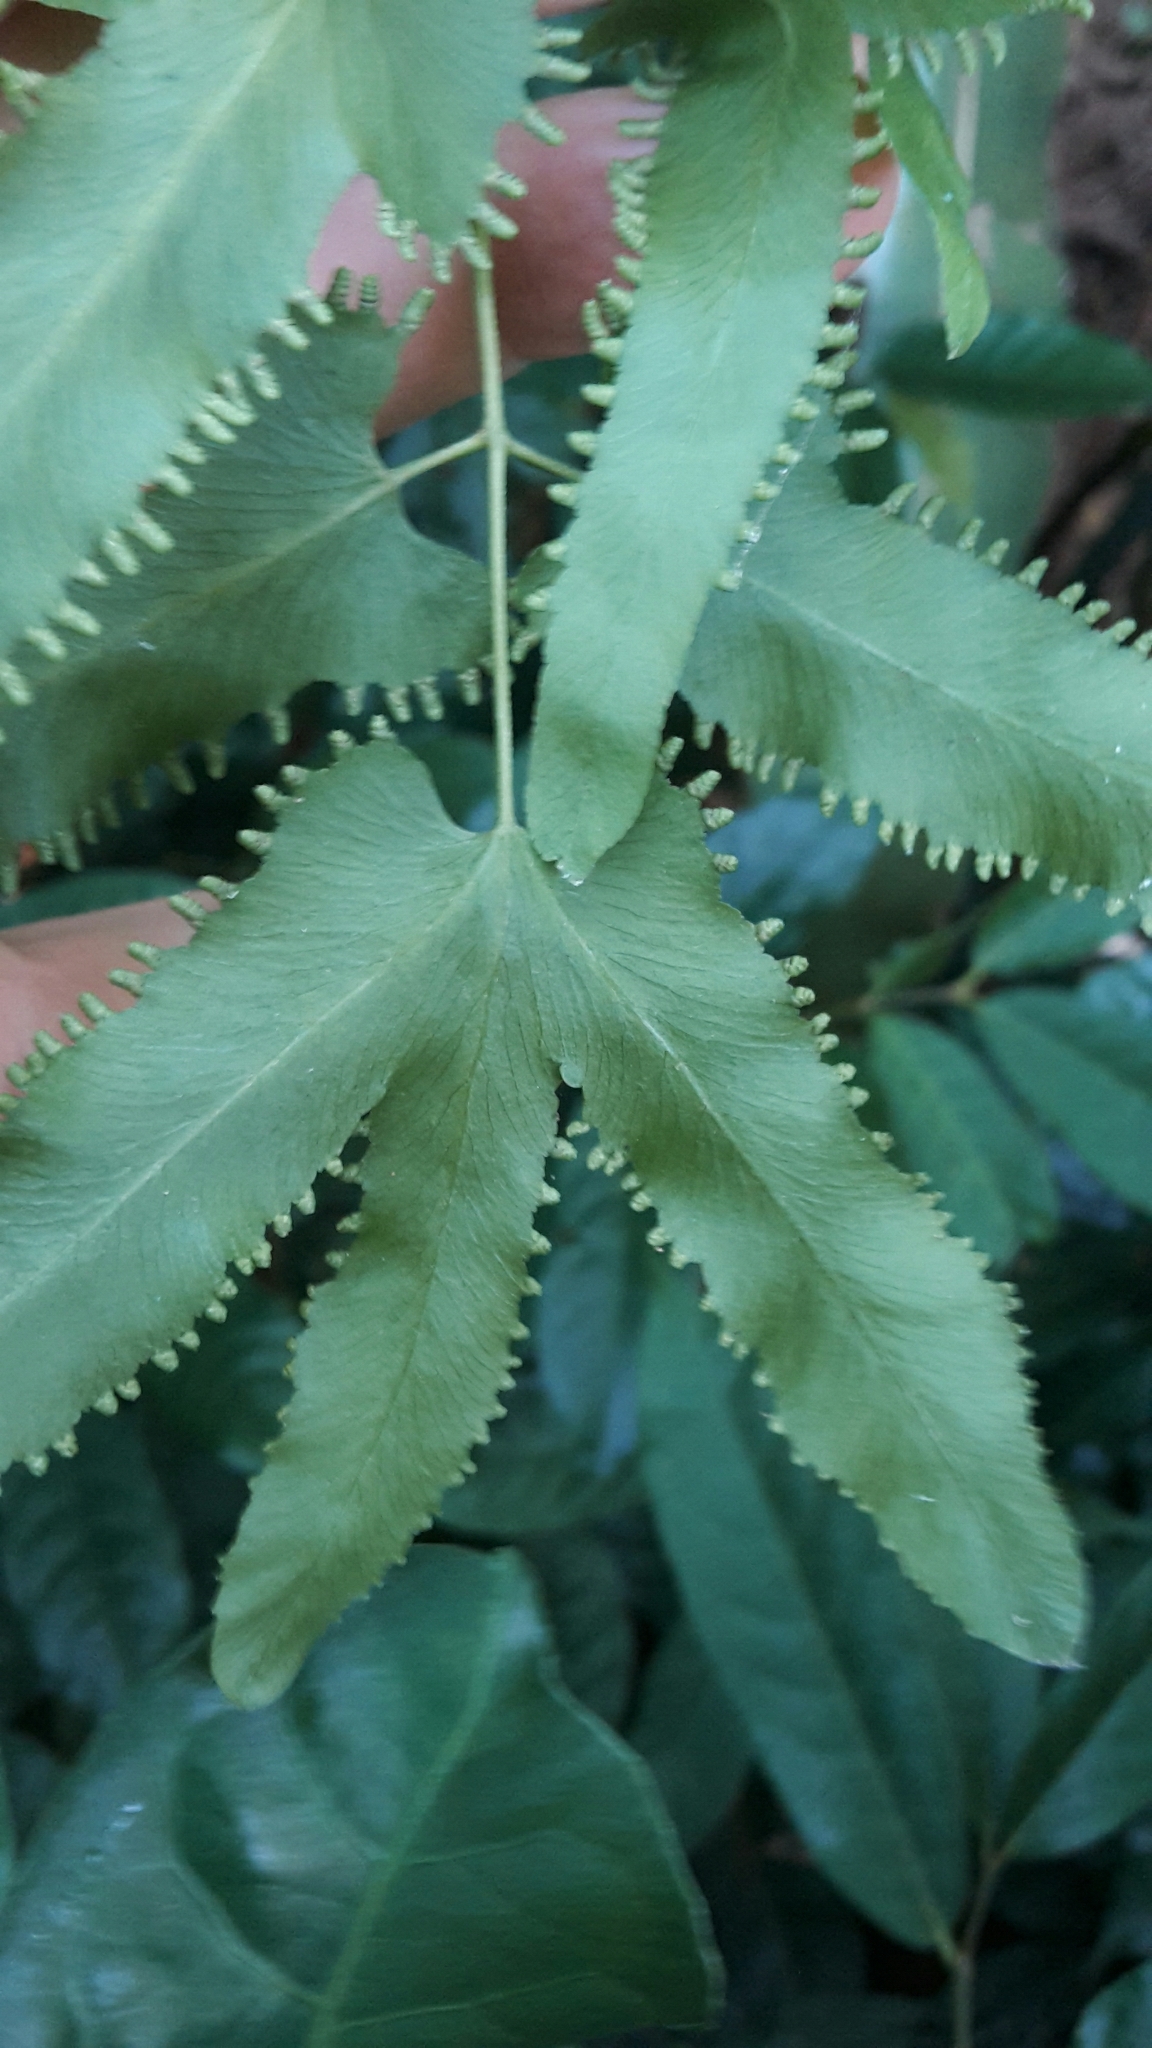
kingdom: Plantae
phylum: Tracheophyta
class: Polypodiopsida
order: Schizaeales
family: Lygodiaceae
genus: Lygodium
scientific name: Lygodium flexuosum
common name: Maidenhair creeper
